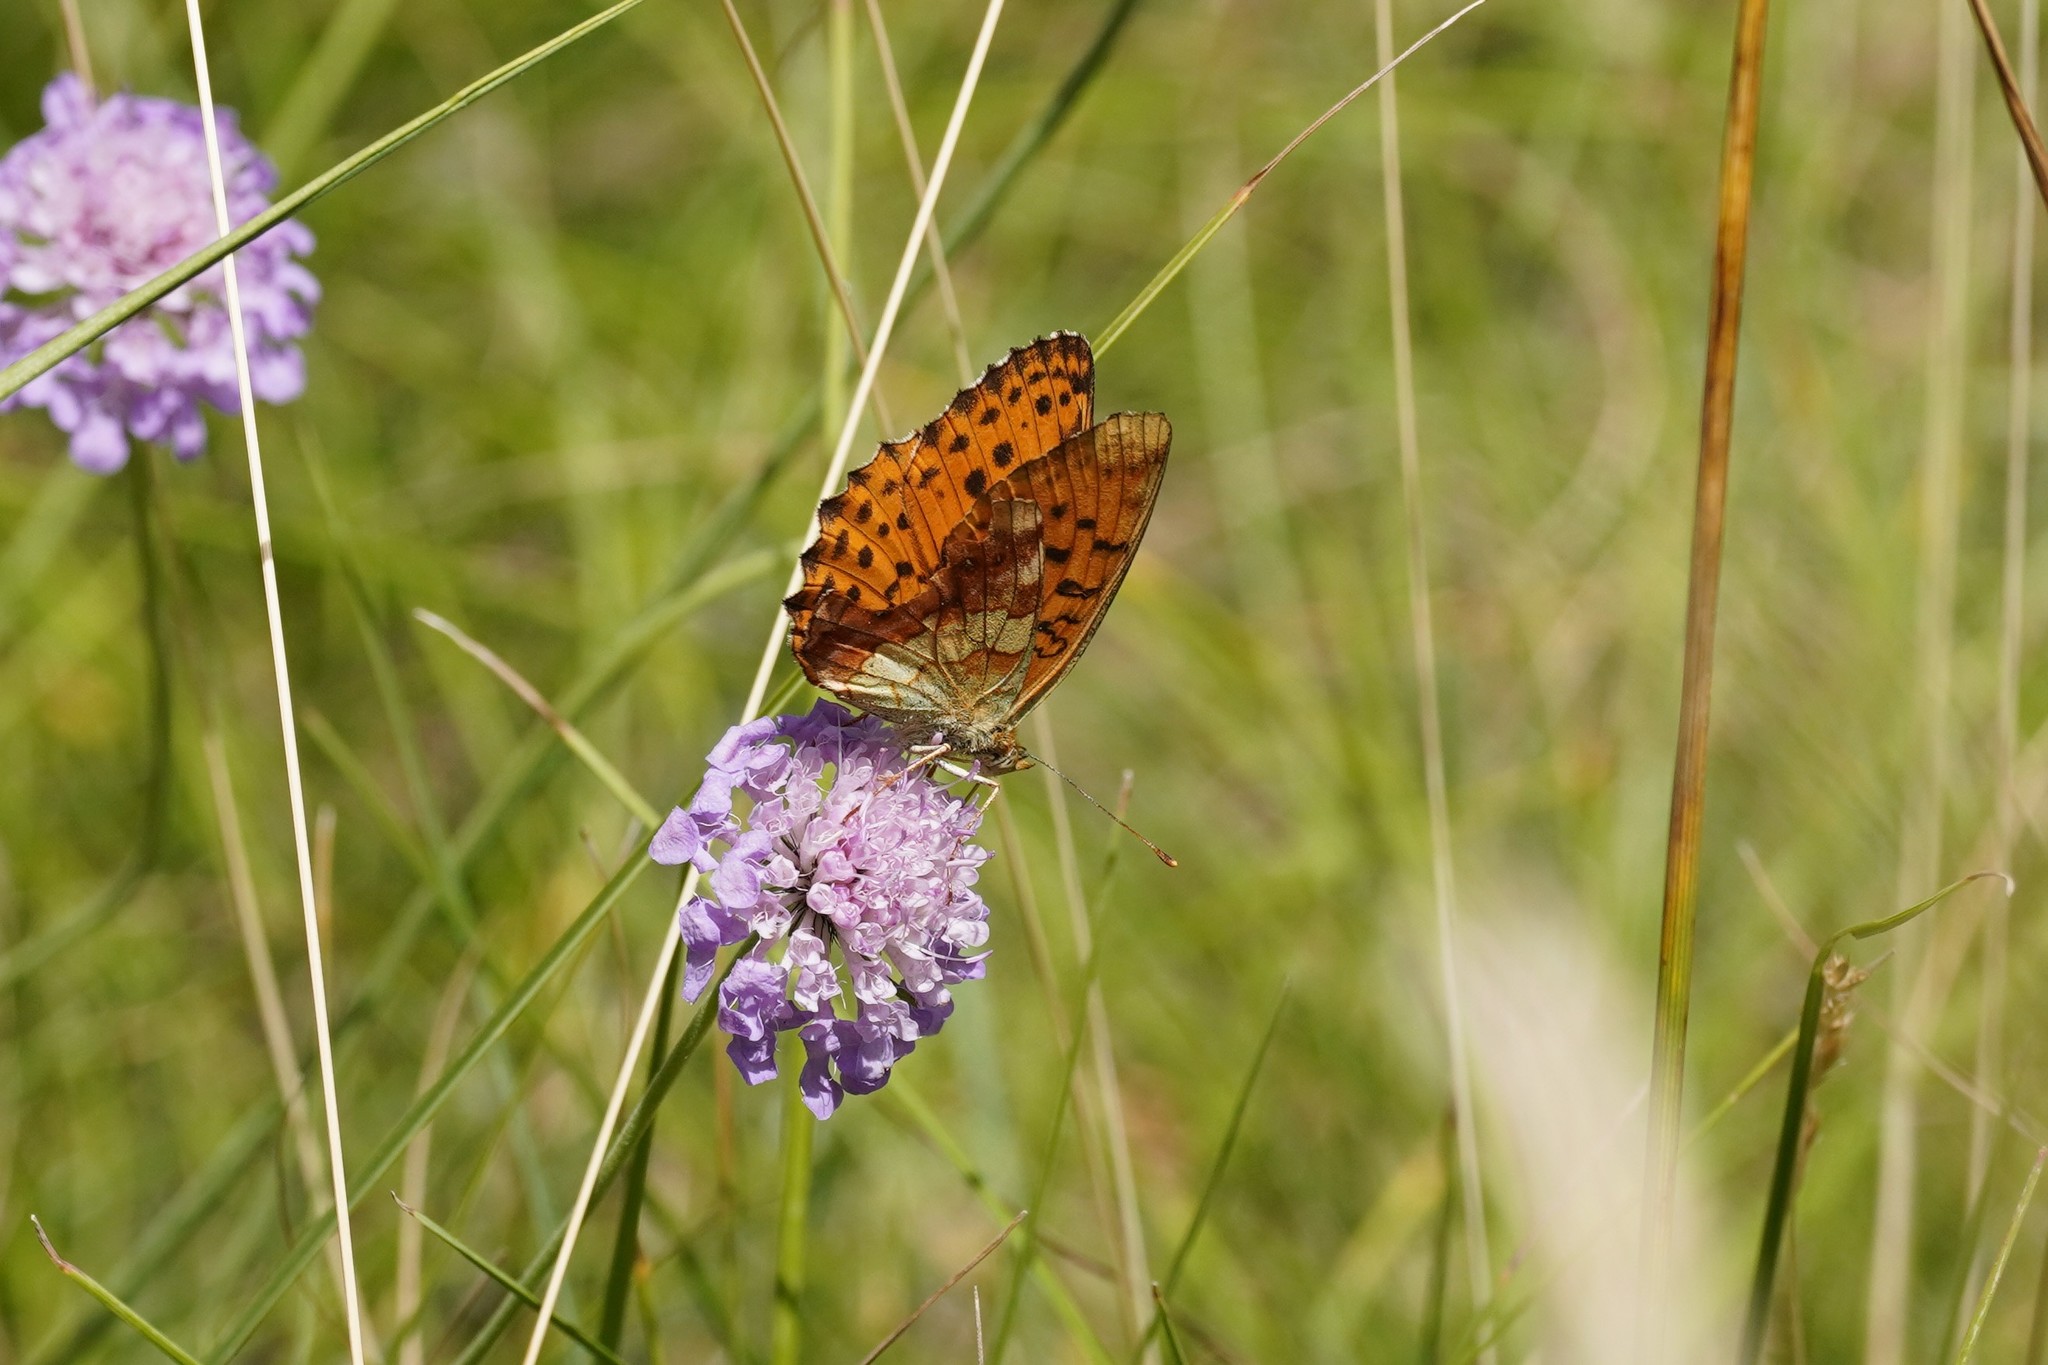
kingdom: Animalia
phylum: Arthropoda
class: Insecta
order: Lepidoptera
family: Nymphalidae
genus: Brenthis
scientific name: Brenthis daphne
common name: Marbled fritillary
